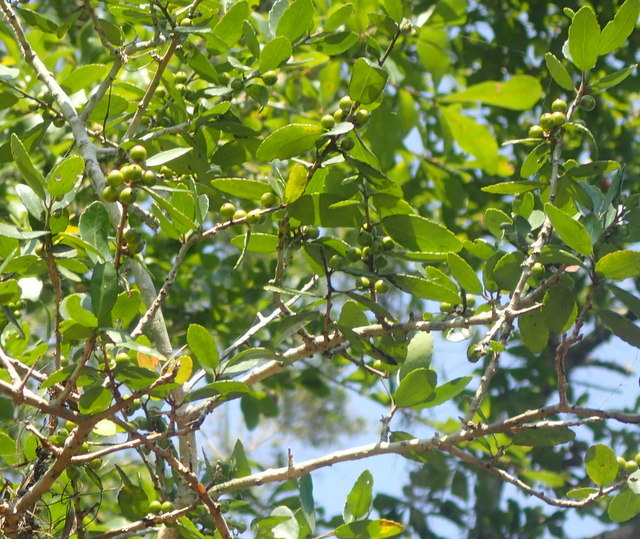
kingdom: Plantae
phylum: Tracheophyta
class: Magnoliopsida
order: Aquifoliales
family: Aquifoliaceae
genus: Ilex
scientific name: Ilex vomitoria
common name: Yaupon holly
